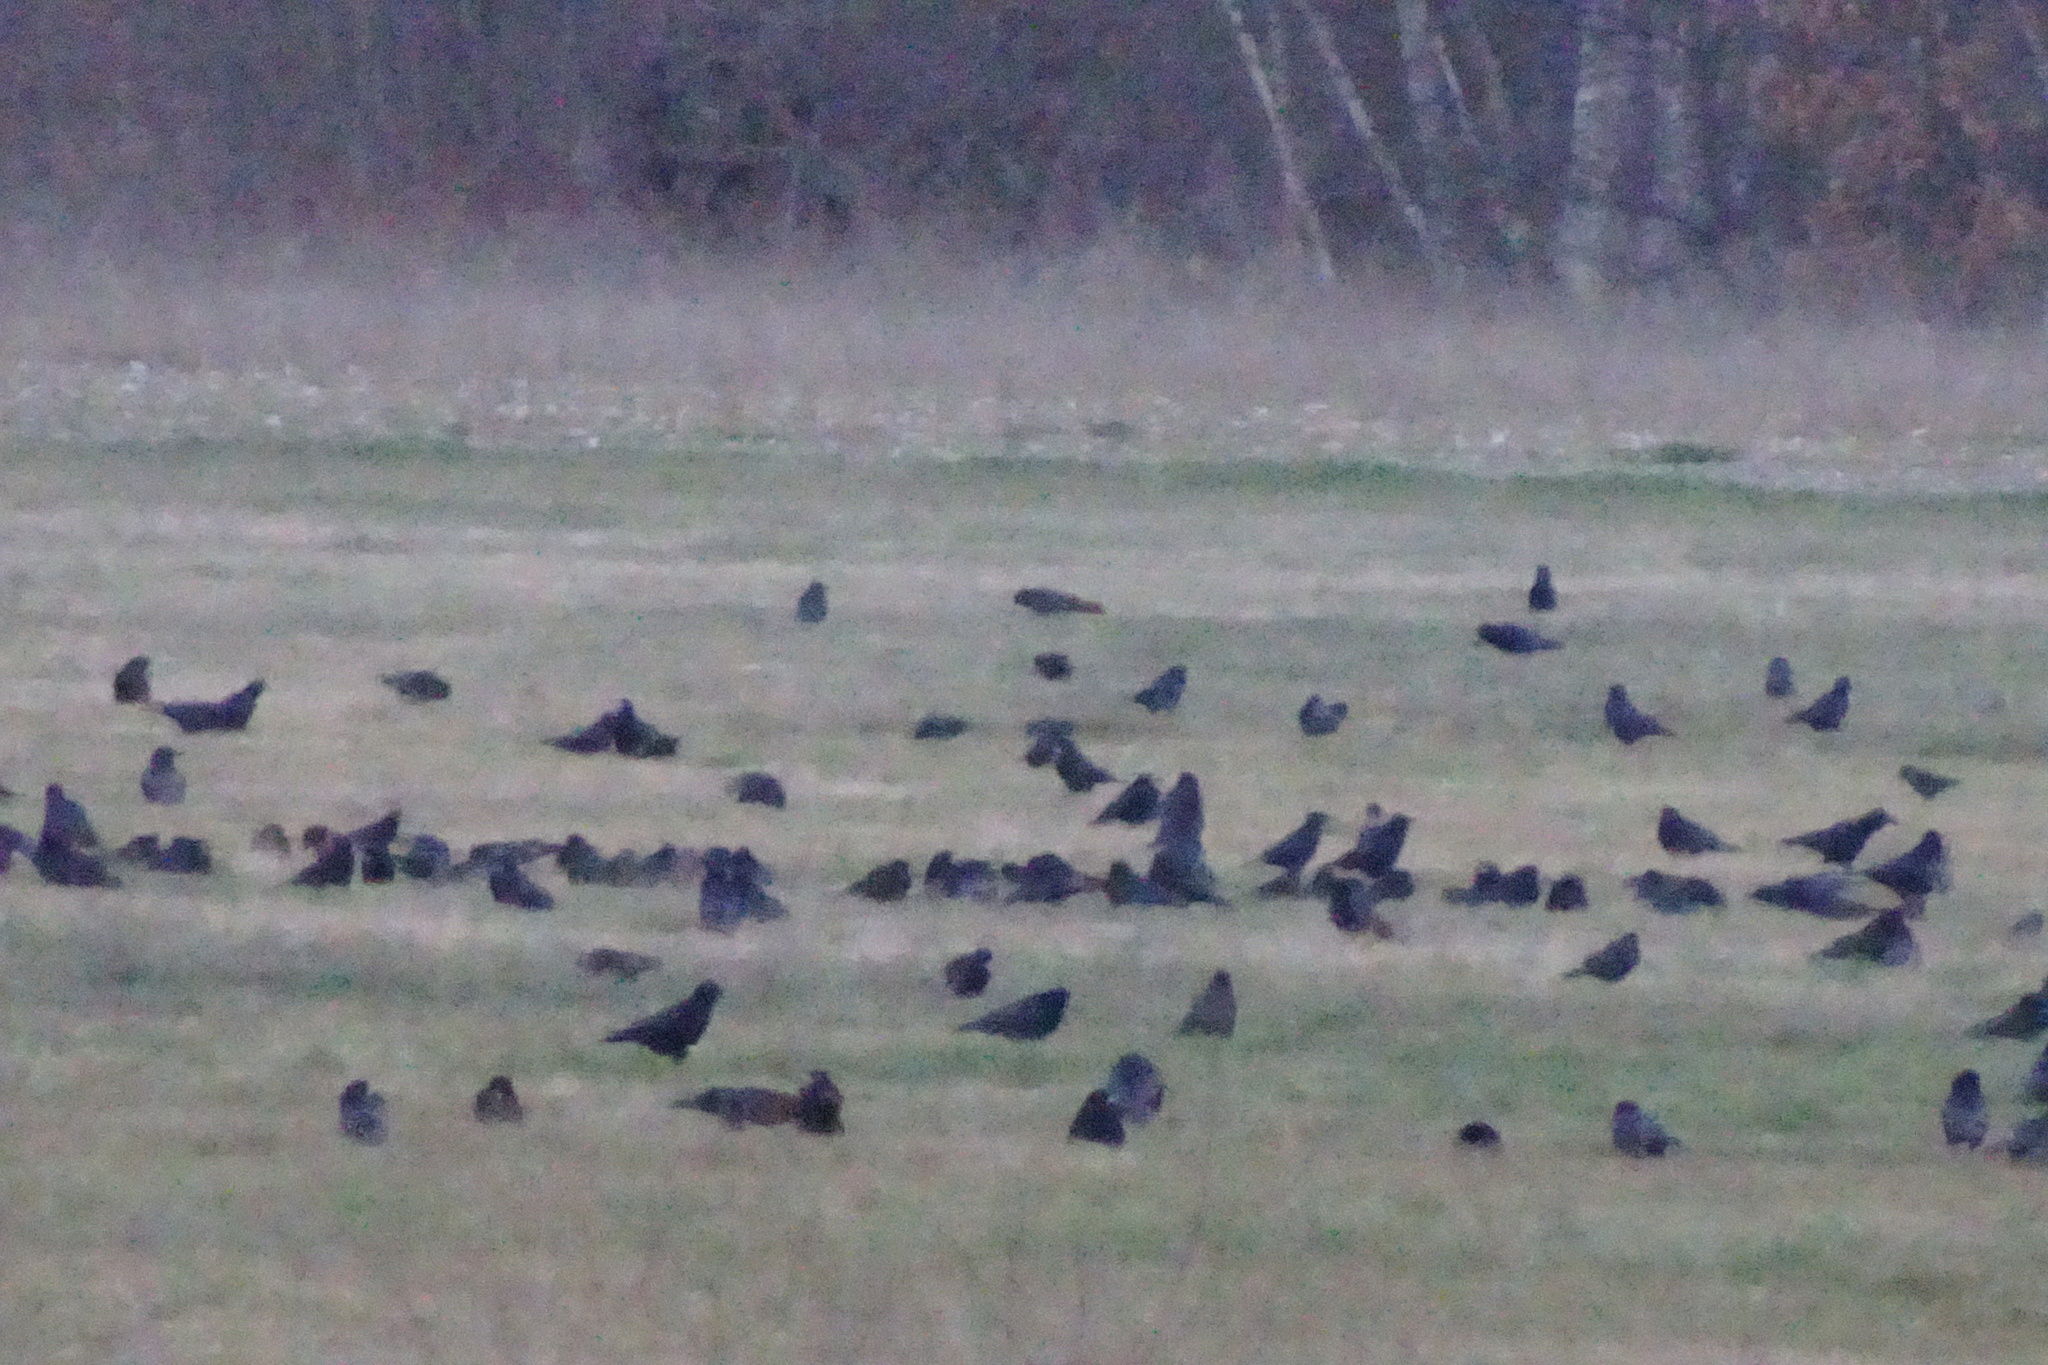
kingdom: Animalia
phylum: Chordata
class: Aves
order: Passeriformes
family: Corvidae
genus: Corvus
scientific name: Corvus frugilegus
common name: Rook
